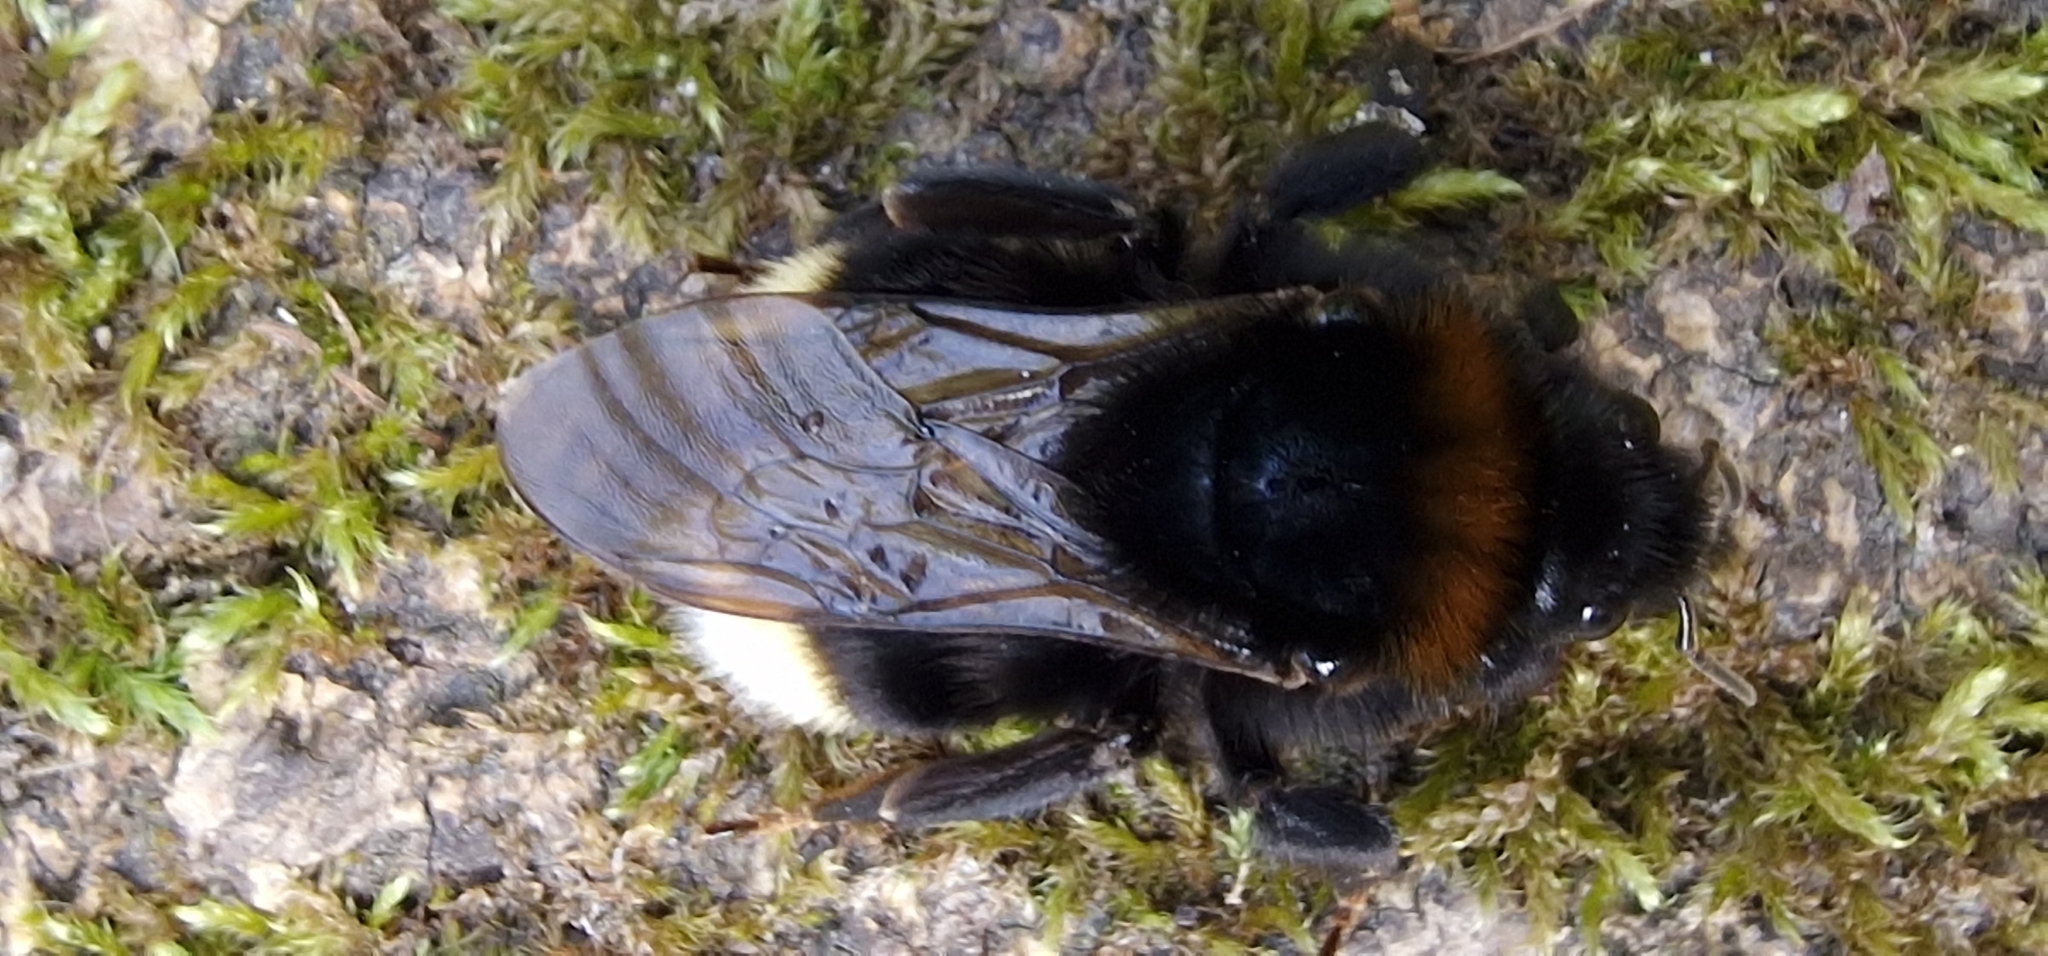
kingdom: Animalia
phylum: Arthropoda
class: Insecta
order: Hymenoptera
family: Apidae
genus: Bombus
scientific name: Bombus vestalis
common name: Vestal cuckoo bee
